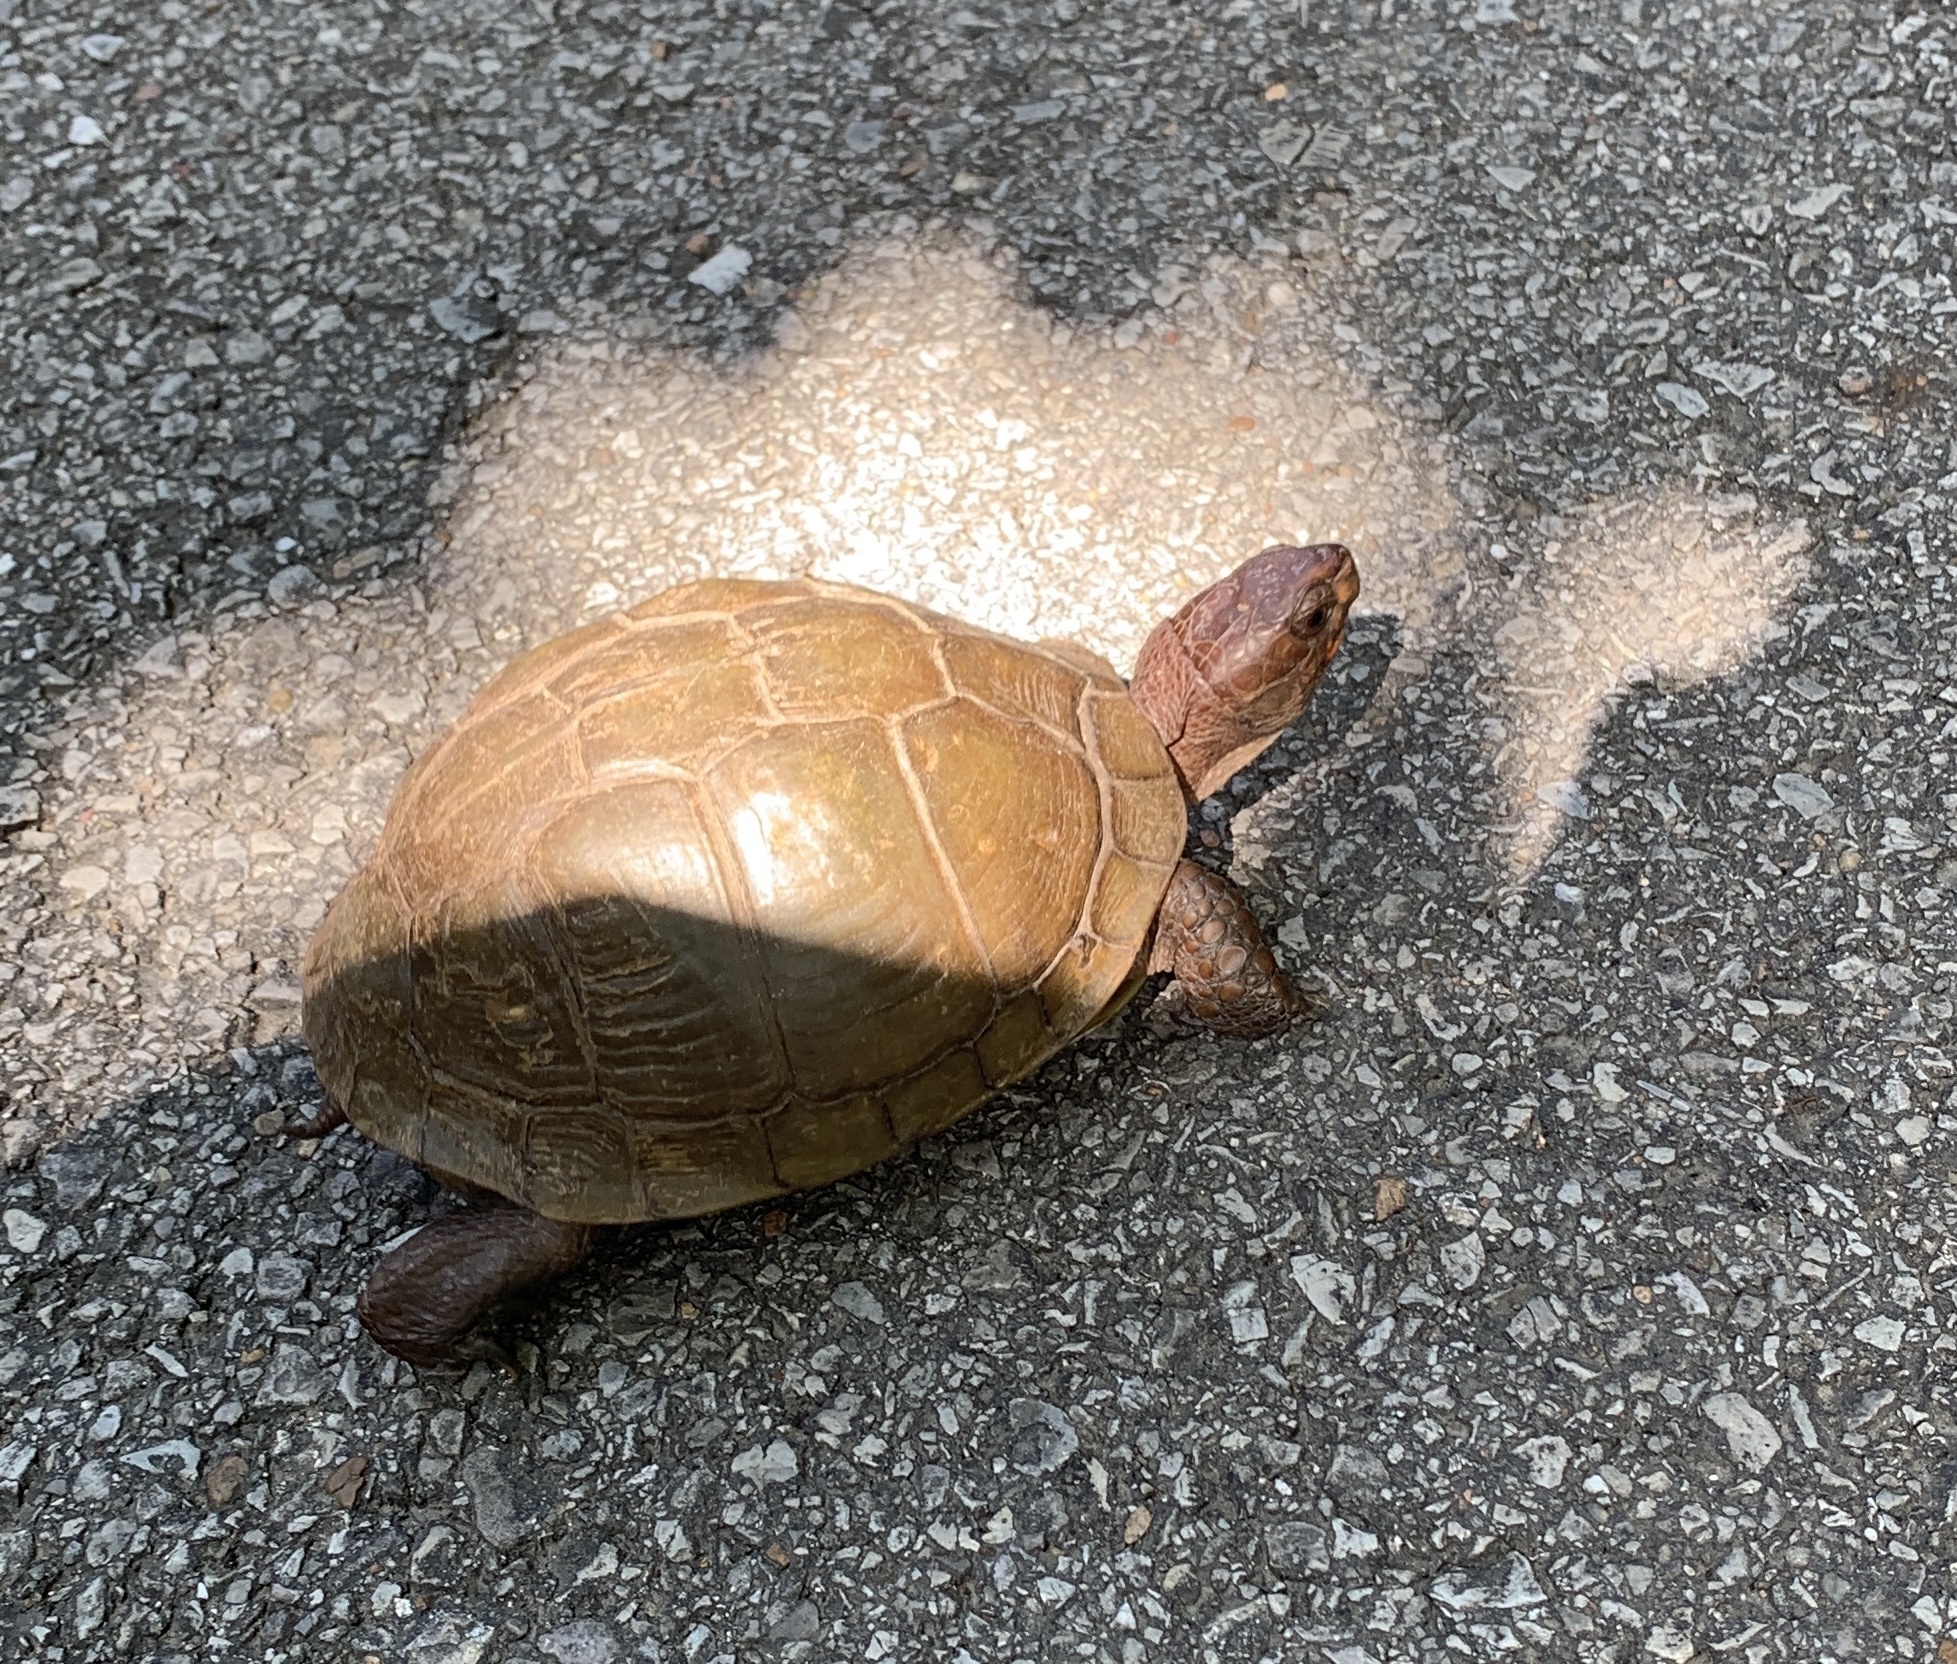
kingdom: Animalia
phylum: Chordata
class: Testudines
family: Emydidae
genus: Terrapene
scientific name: Terrapene carolina
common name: Common box turtle
